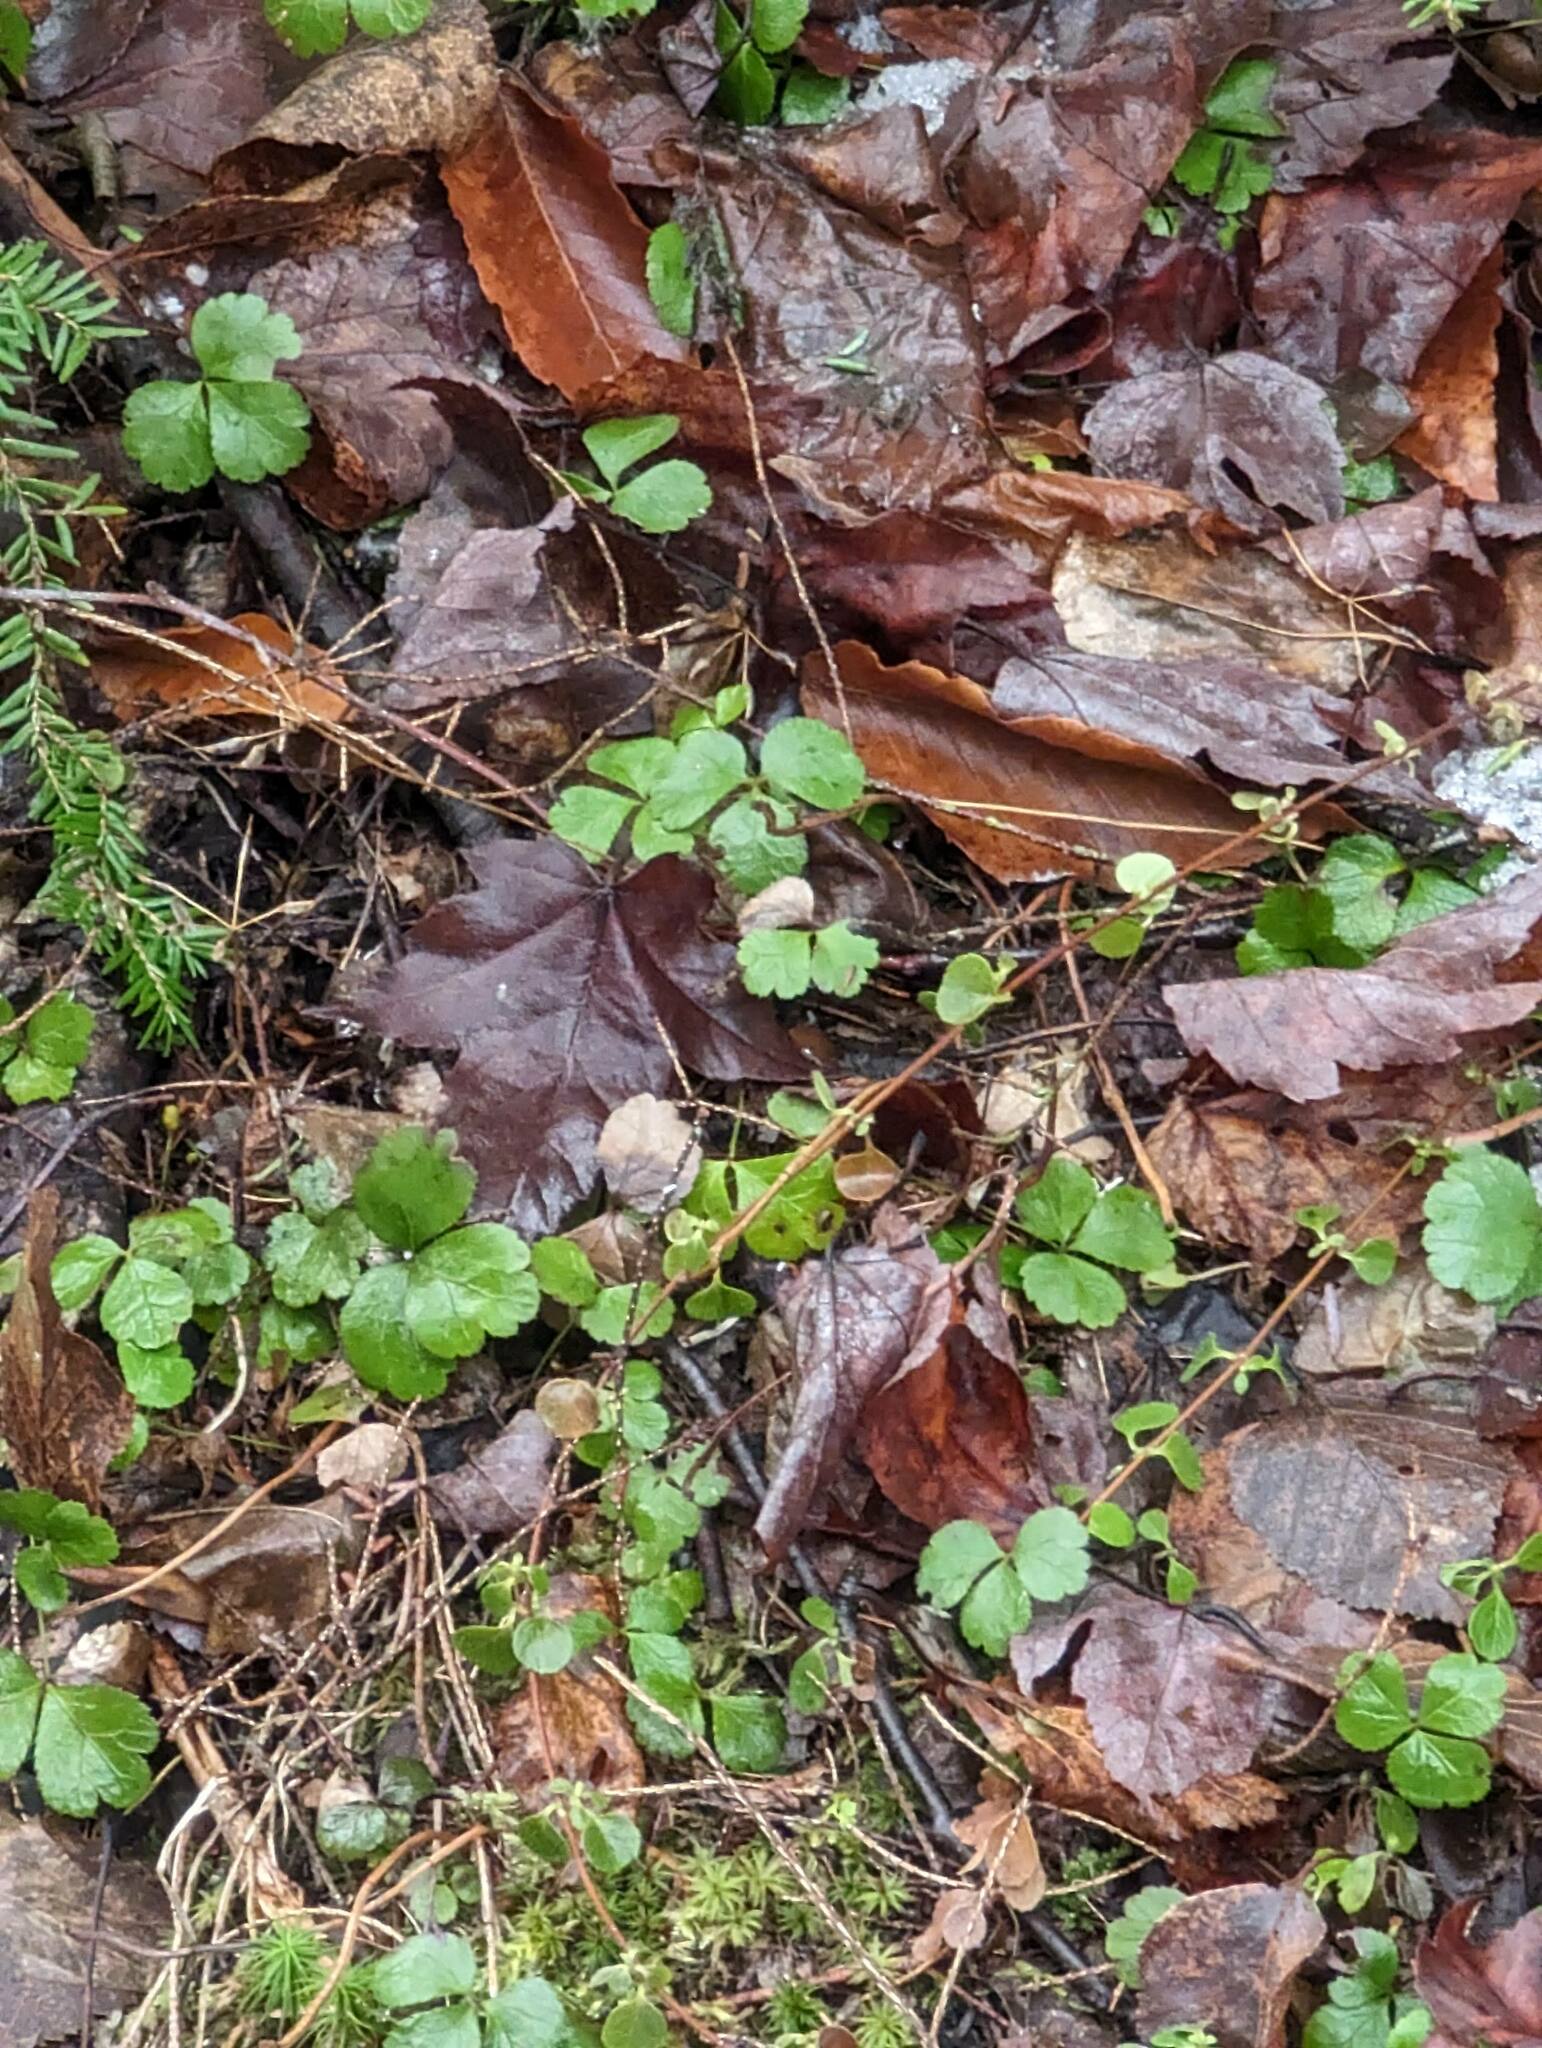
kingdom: Plantae
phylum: Tracheophyta
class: Magnoliopsida
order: Ranunculales
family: Ranunculaceae
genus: Coptis
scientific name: Coptis trifolia
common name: Canker-root
